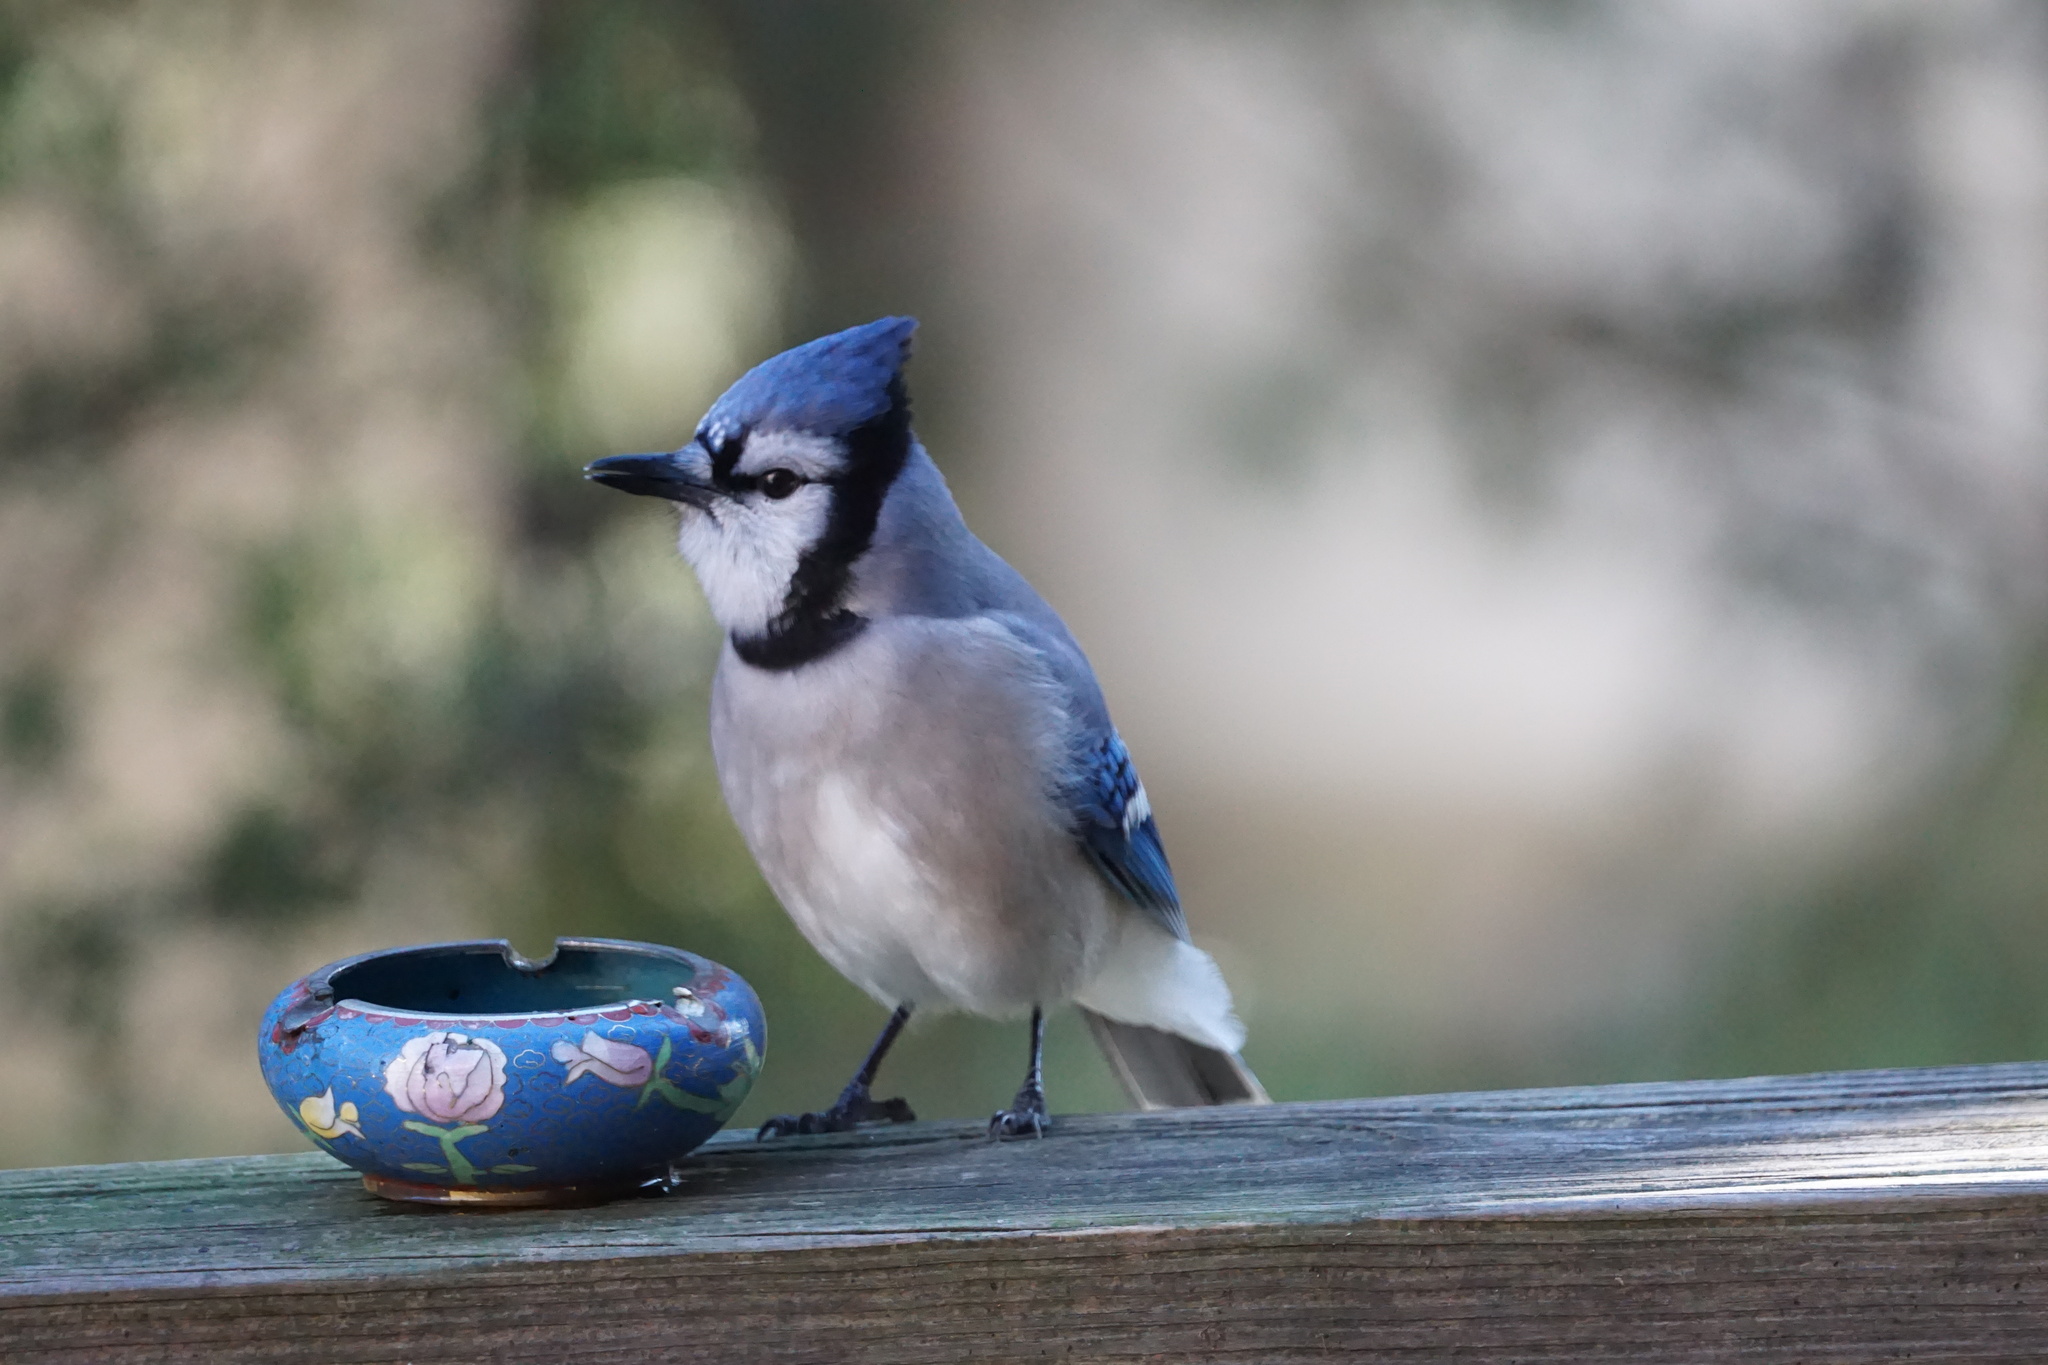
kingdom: Animalia
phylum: Chordata
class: Aves
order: Passeriformes
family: Corvidae
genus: Cyanocitta
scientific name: Cyanocitta cristata
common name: Blue jay
